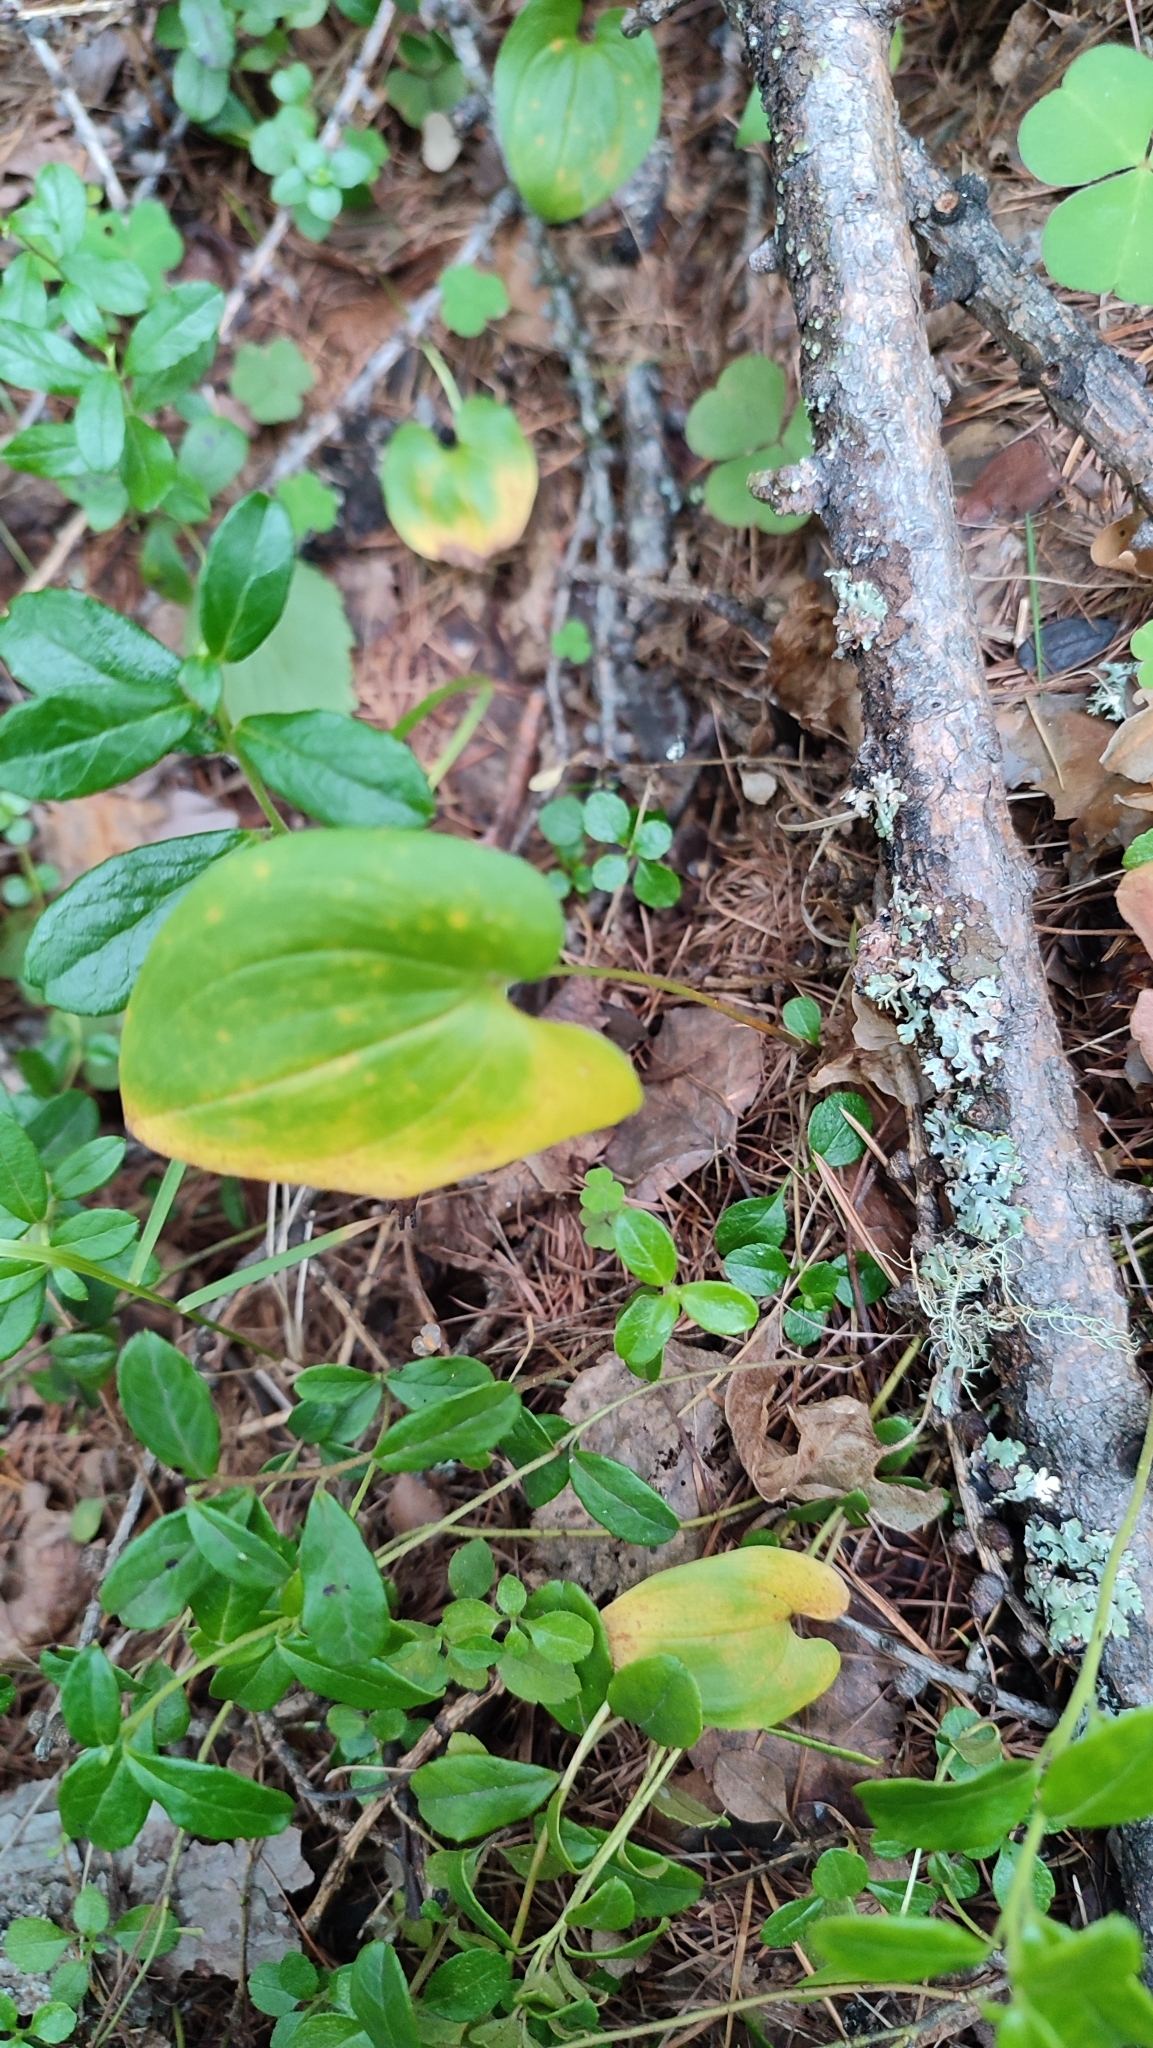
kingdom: Plantae
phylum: Tracheophyta
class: Liliopsida
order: Asparagales
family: Asparagaceae
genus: Maianthemum
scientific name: Maianthemum bifolium
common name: May lily
